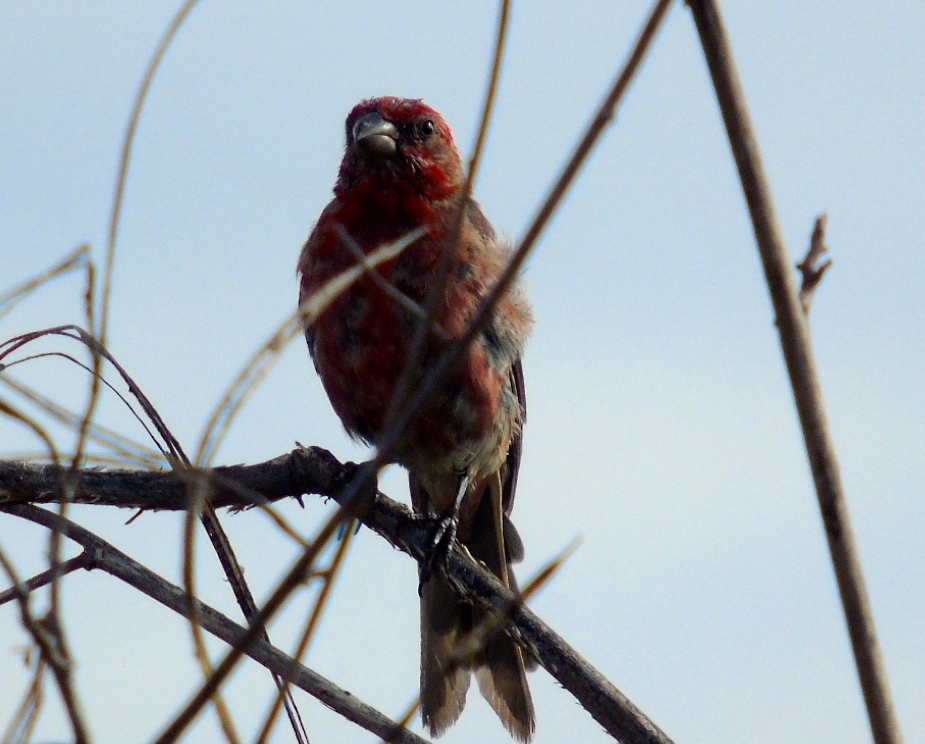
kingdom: Animalia
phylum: Chordata
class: Aves
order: Passeriformes
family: Fringillidae
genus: Haemorhous
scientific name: Haemorhous mexicanus
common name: House finch
